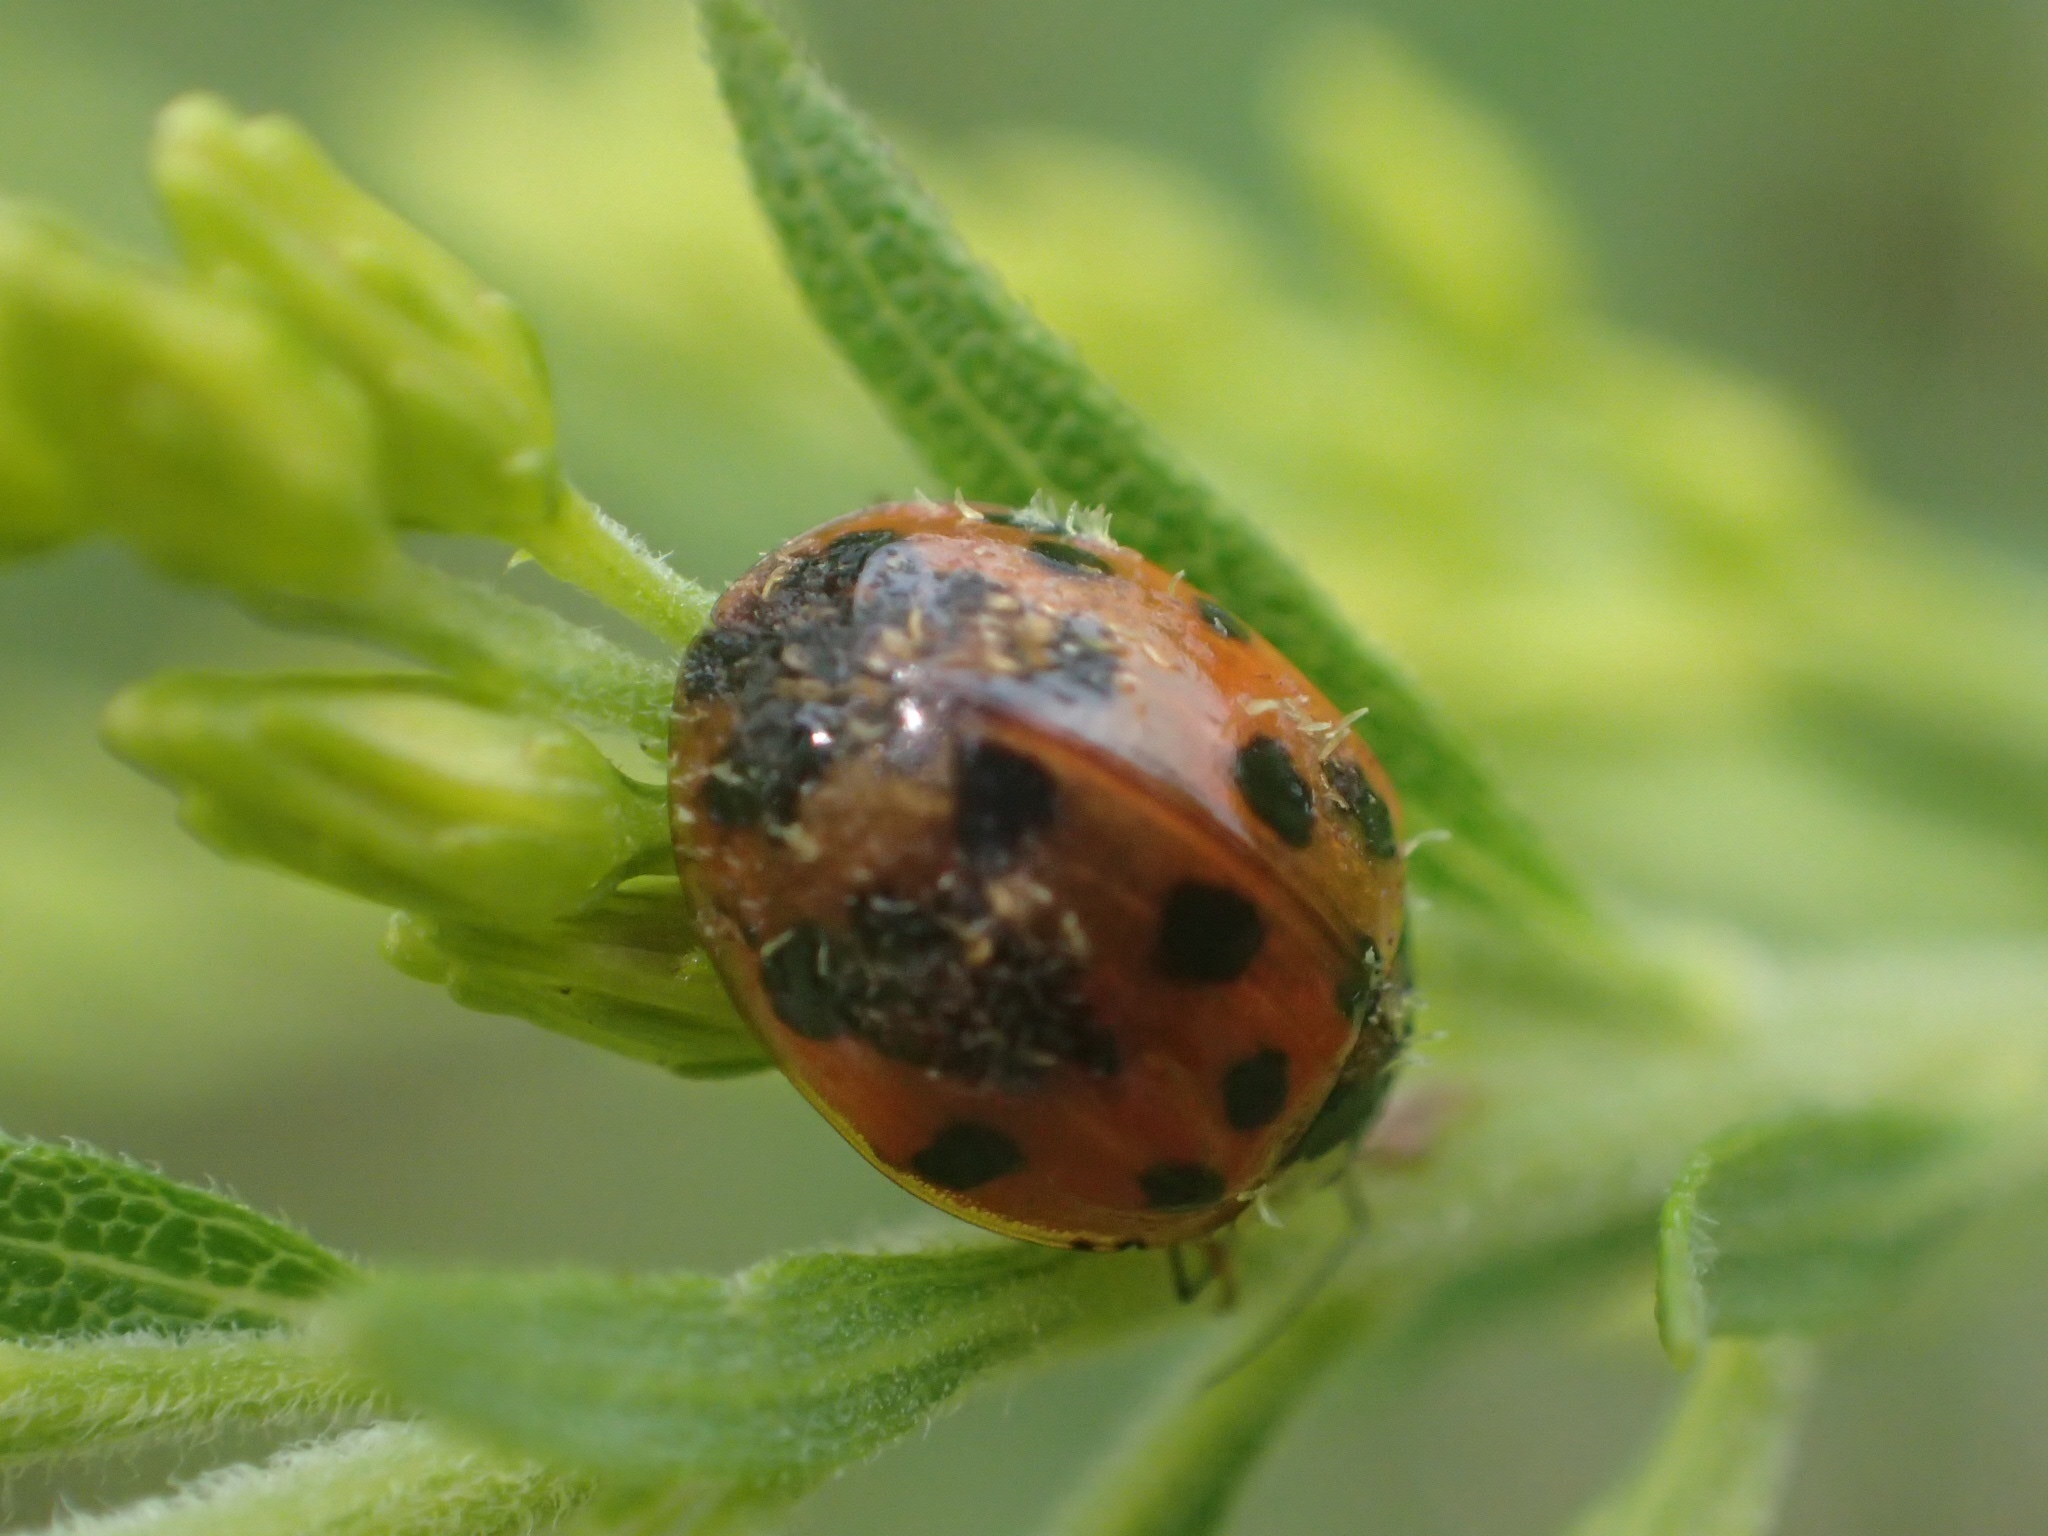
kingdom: Fungi
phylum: Ascomycota
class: Laboulbeniomycetes
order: Laboulbeniales
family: Laboulbeniaceae
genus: Hesperomyces
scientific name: Hesperomyces harmoniae
